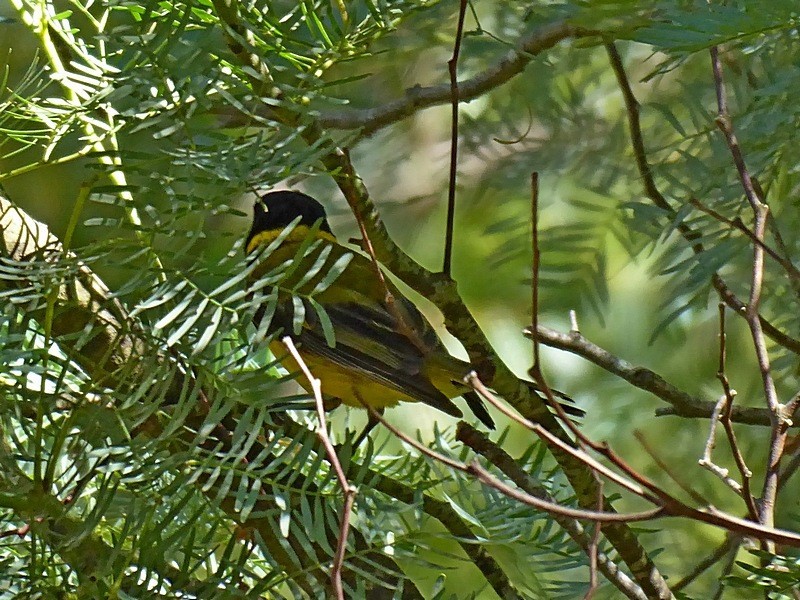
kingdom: Animalia
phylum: Chordata
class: Aves
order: Passeriformes
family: Pachycephalidae
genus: Pachycephala
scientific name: Pachycephala pectoralis
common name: Australian golden whistler
